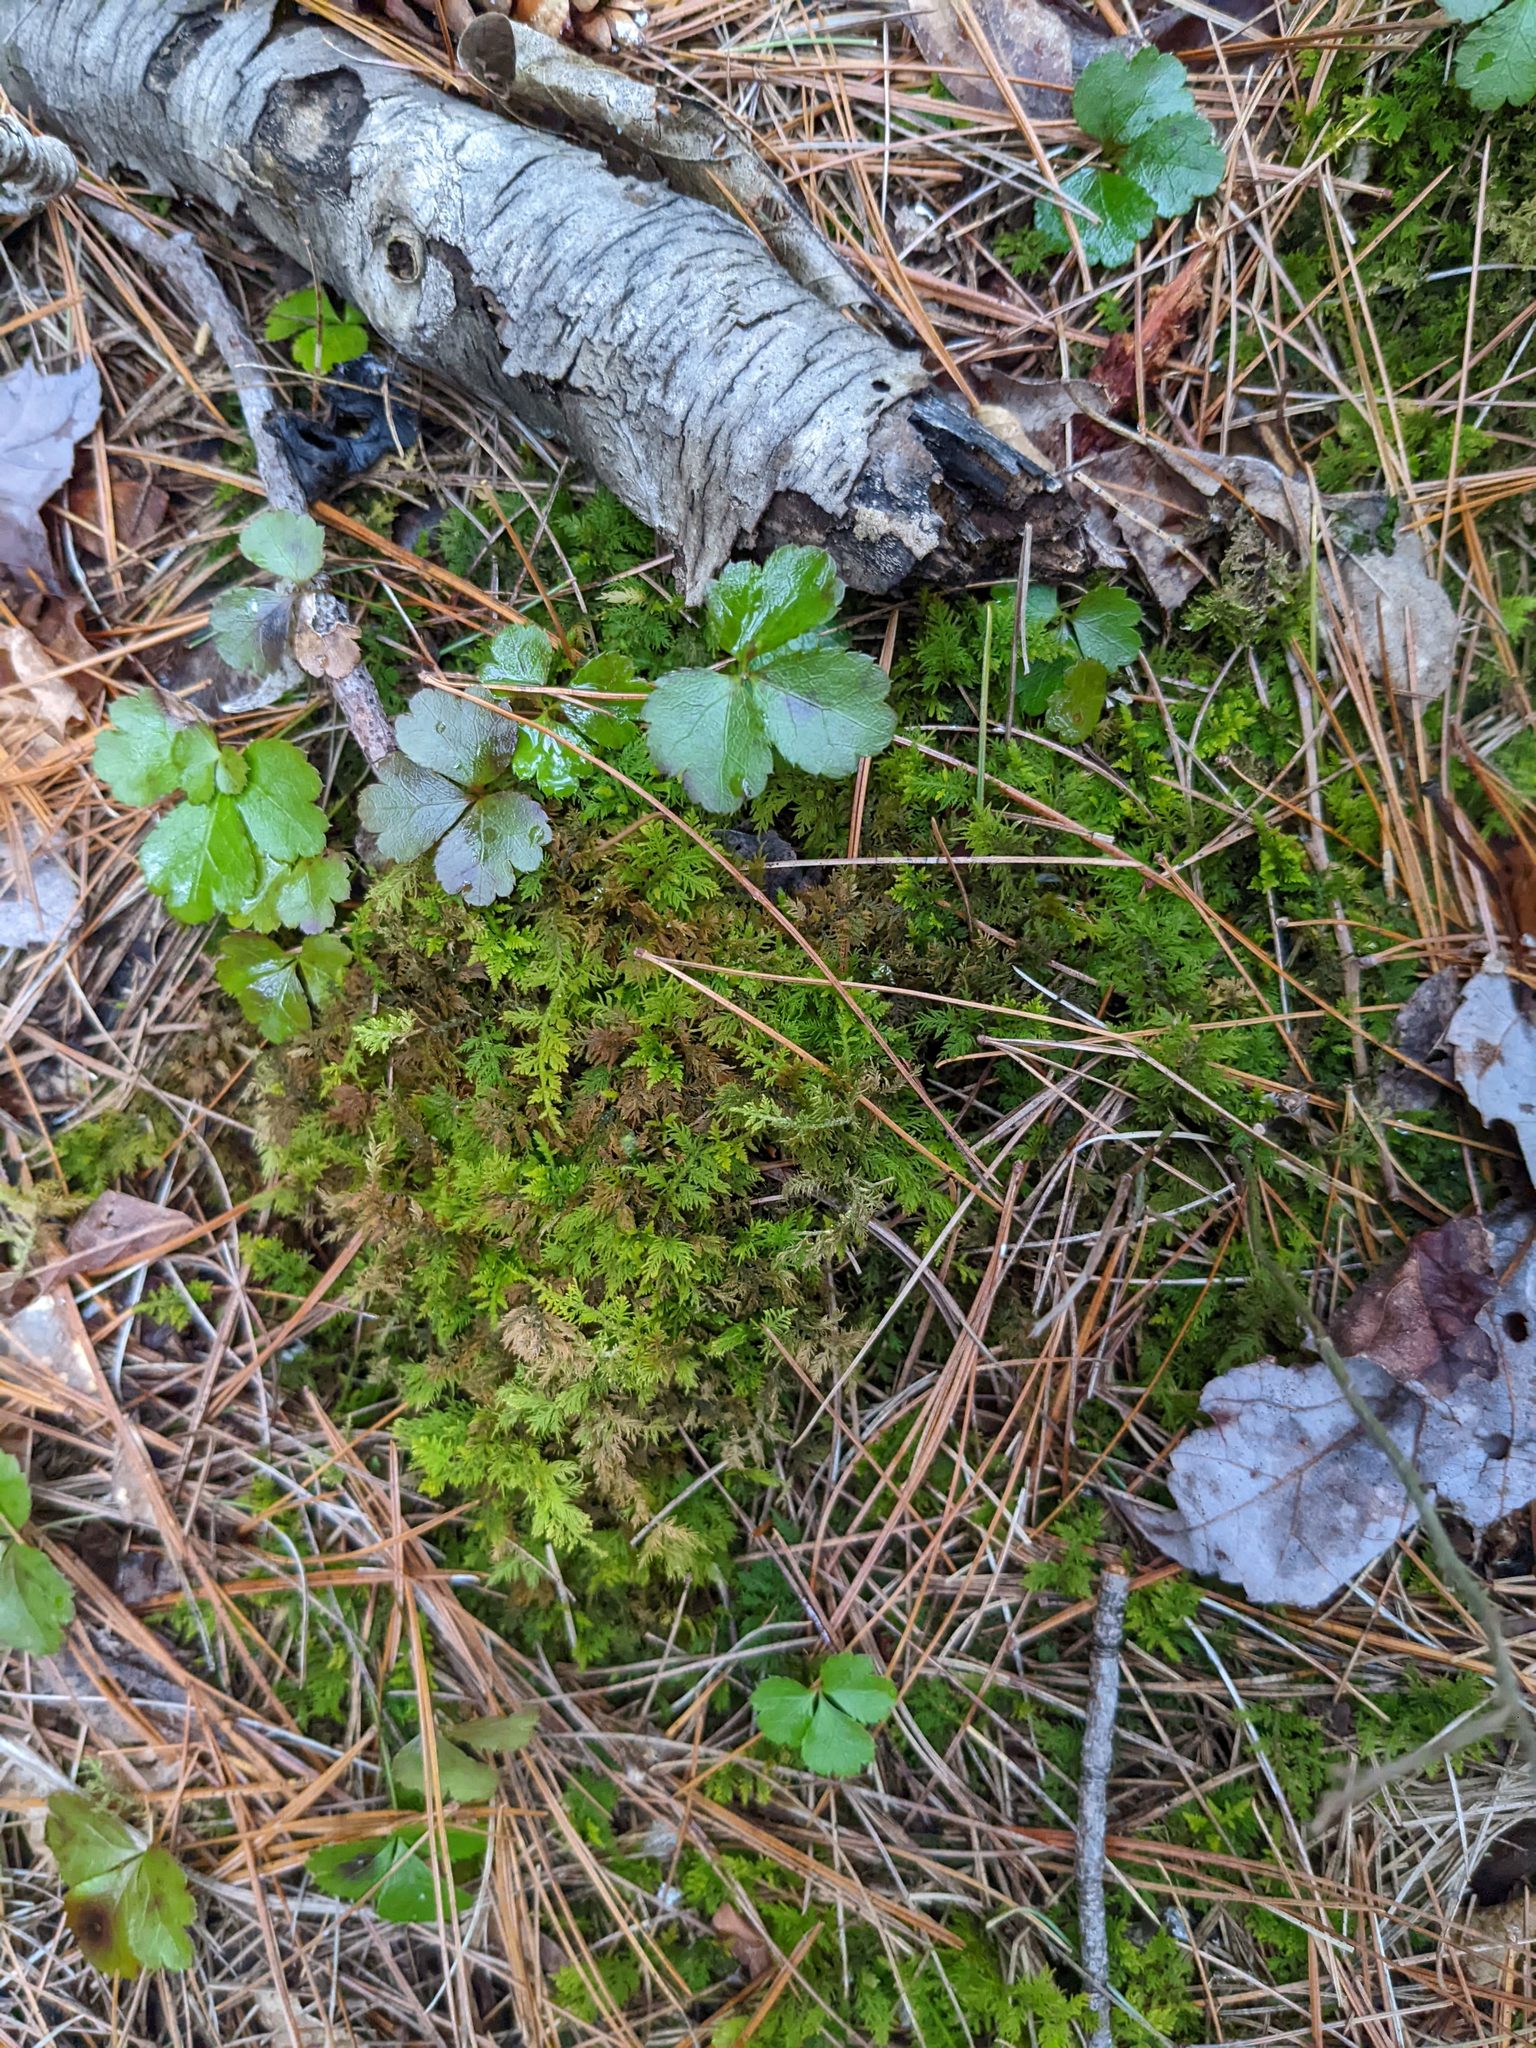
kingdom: Plantae
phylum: Tracheophyta
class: Magnoliopsida
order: Ranunculales
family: Ranunculaceae
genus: Coptis
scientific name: Coptis trifolia
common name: Canker-root
